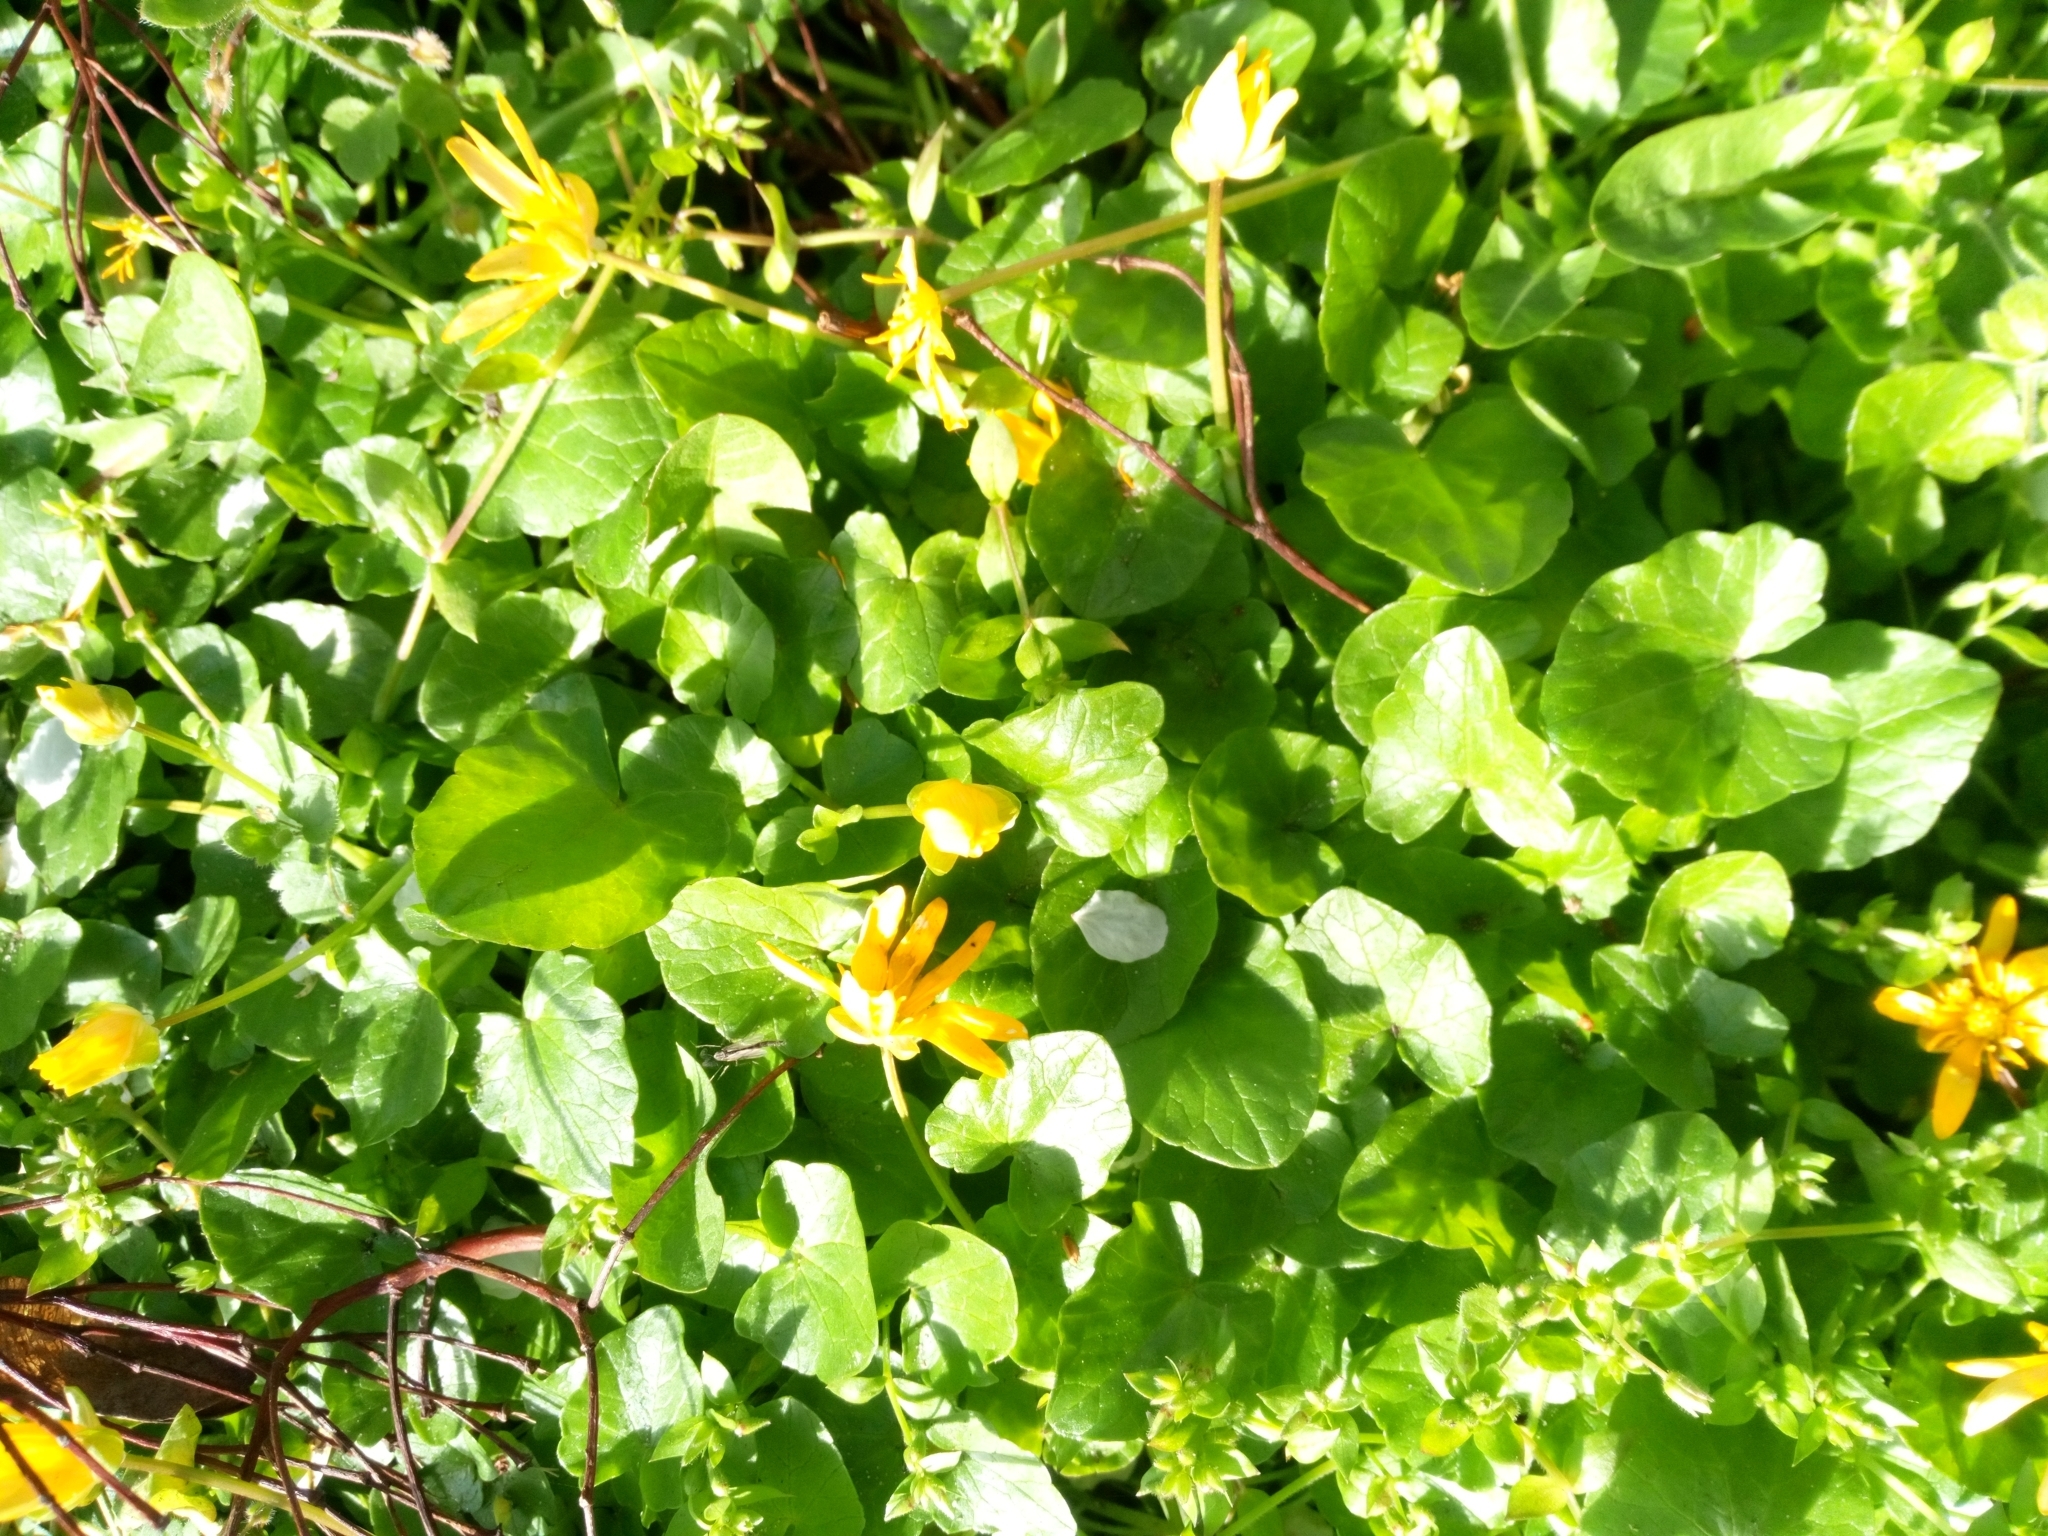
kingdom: Plantae
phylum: Tracheophyta
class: Magnoliopsida
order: Ranunculales
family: Ranunculaceae
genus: Ficaria
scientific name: Ficaria verna
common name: Lesser celandine
